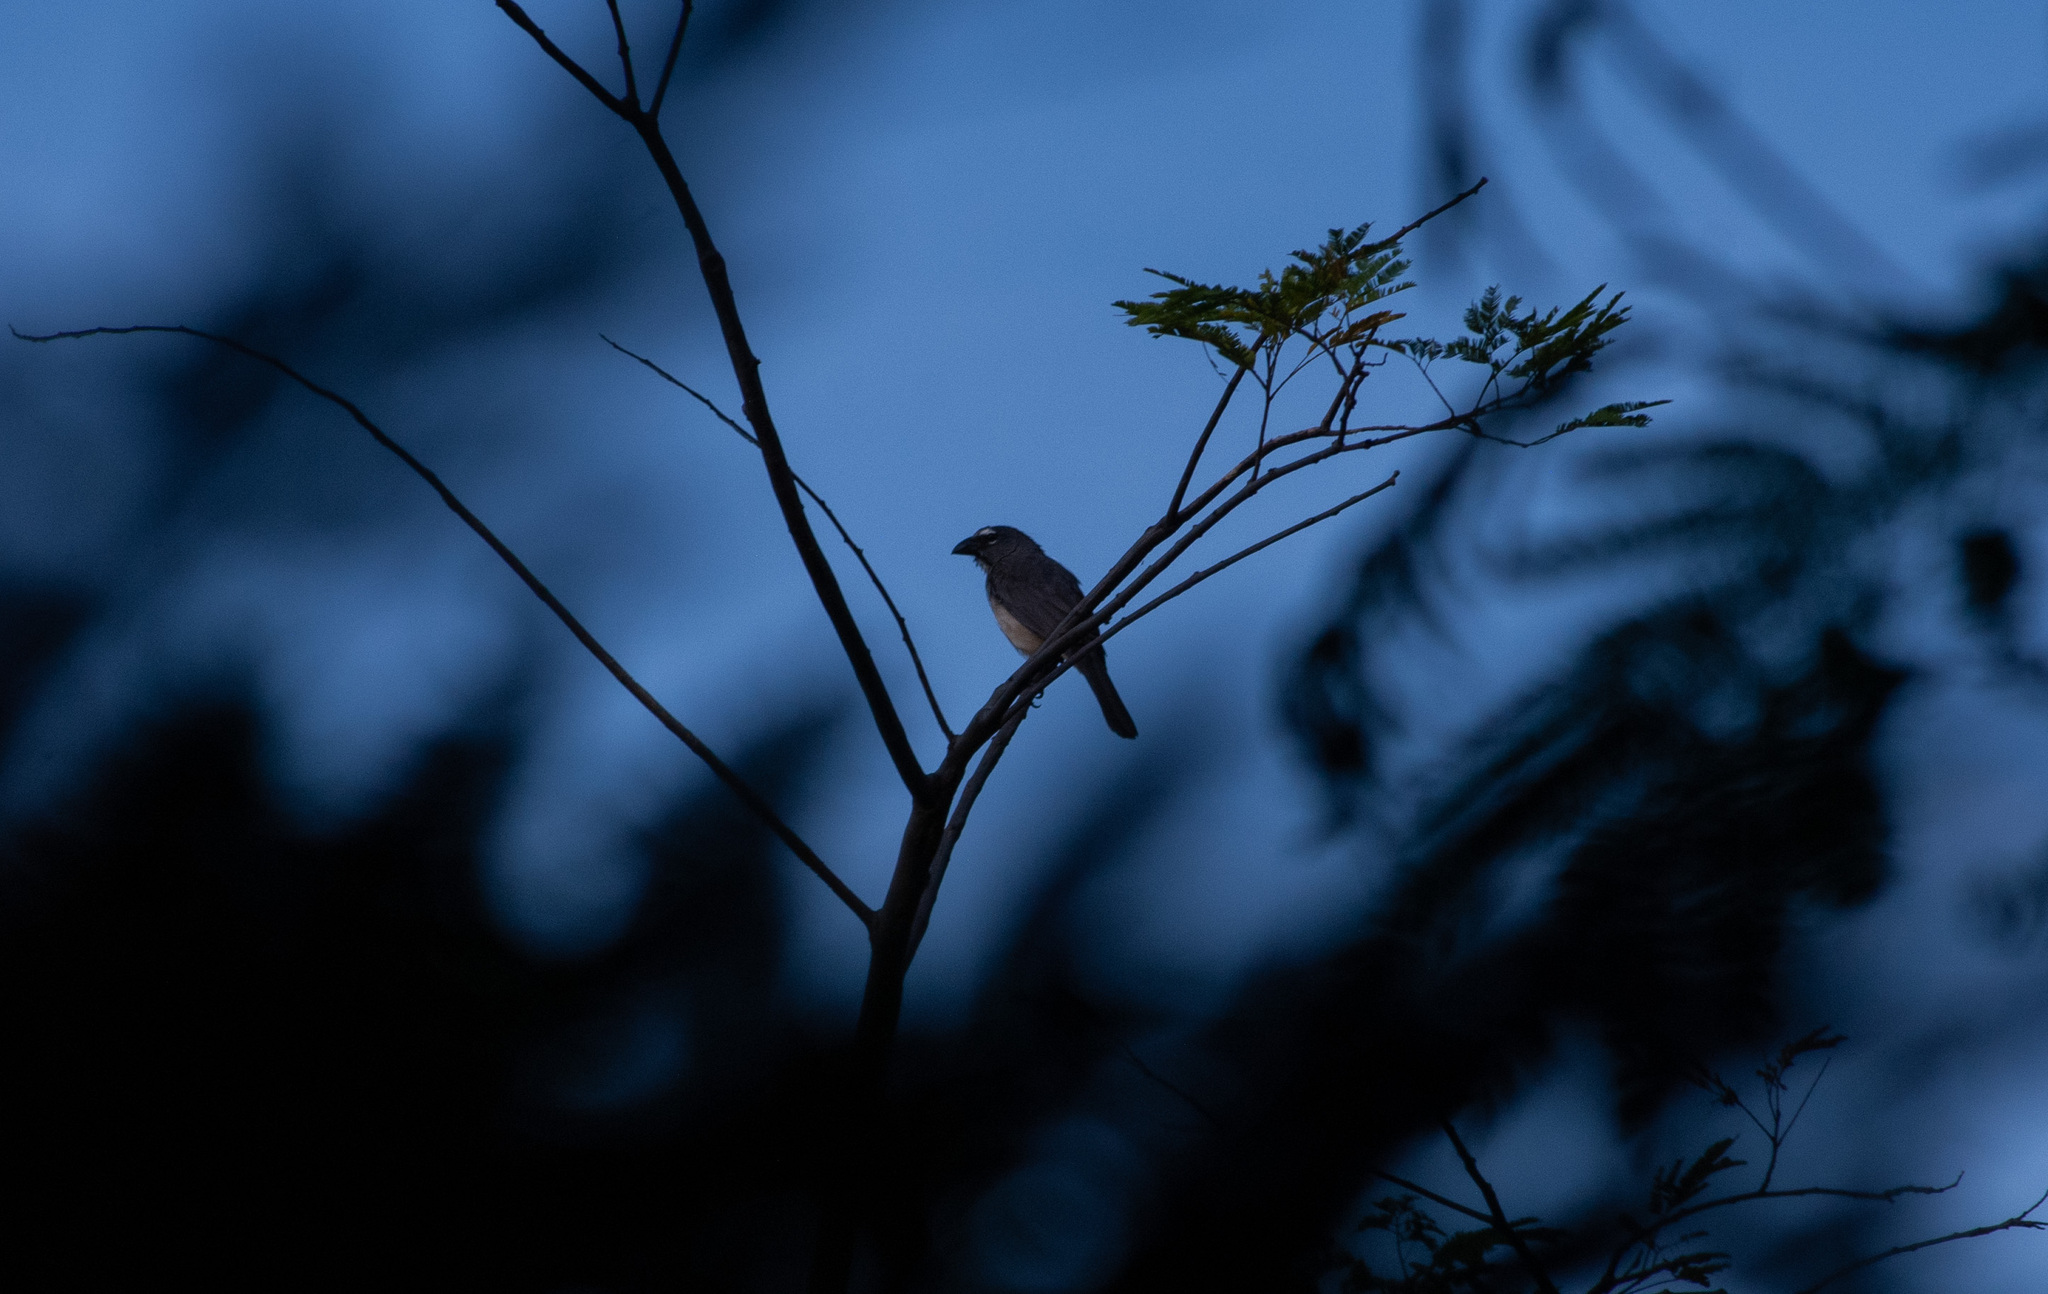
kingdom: Animalia
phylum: Chordata
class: Aves
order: Passeriformes
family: Thraupidae
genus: Saltator
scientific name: Saltator olivascens
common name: Caribbean grey saltator
